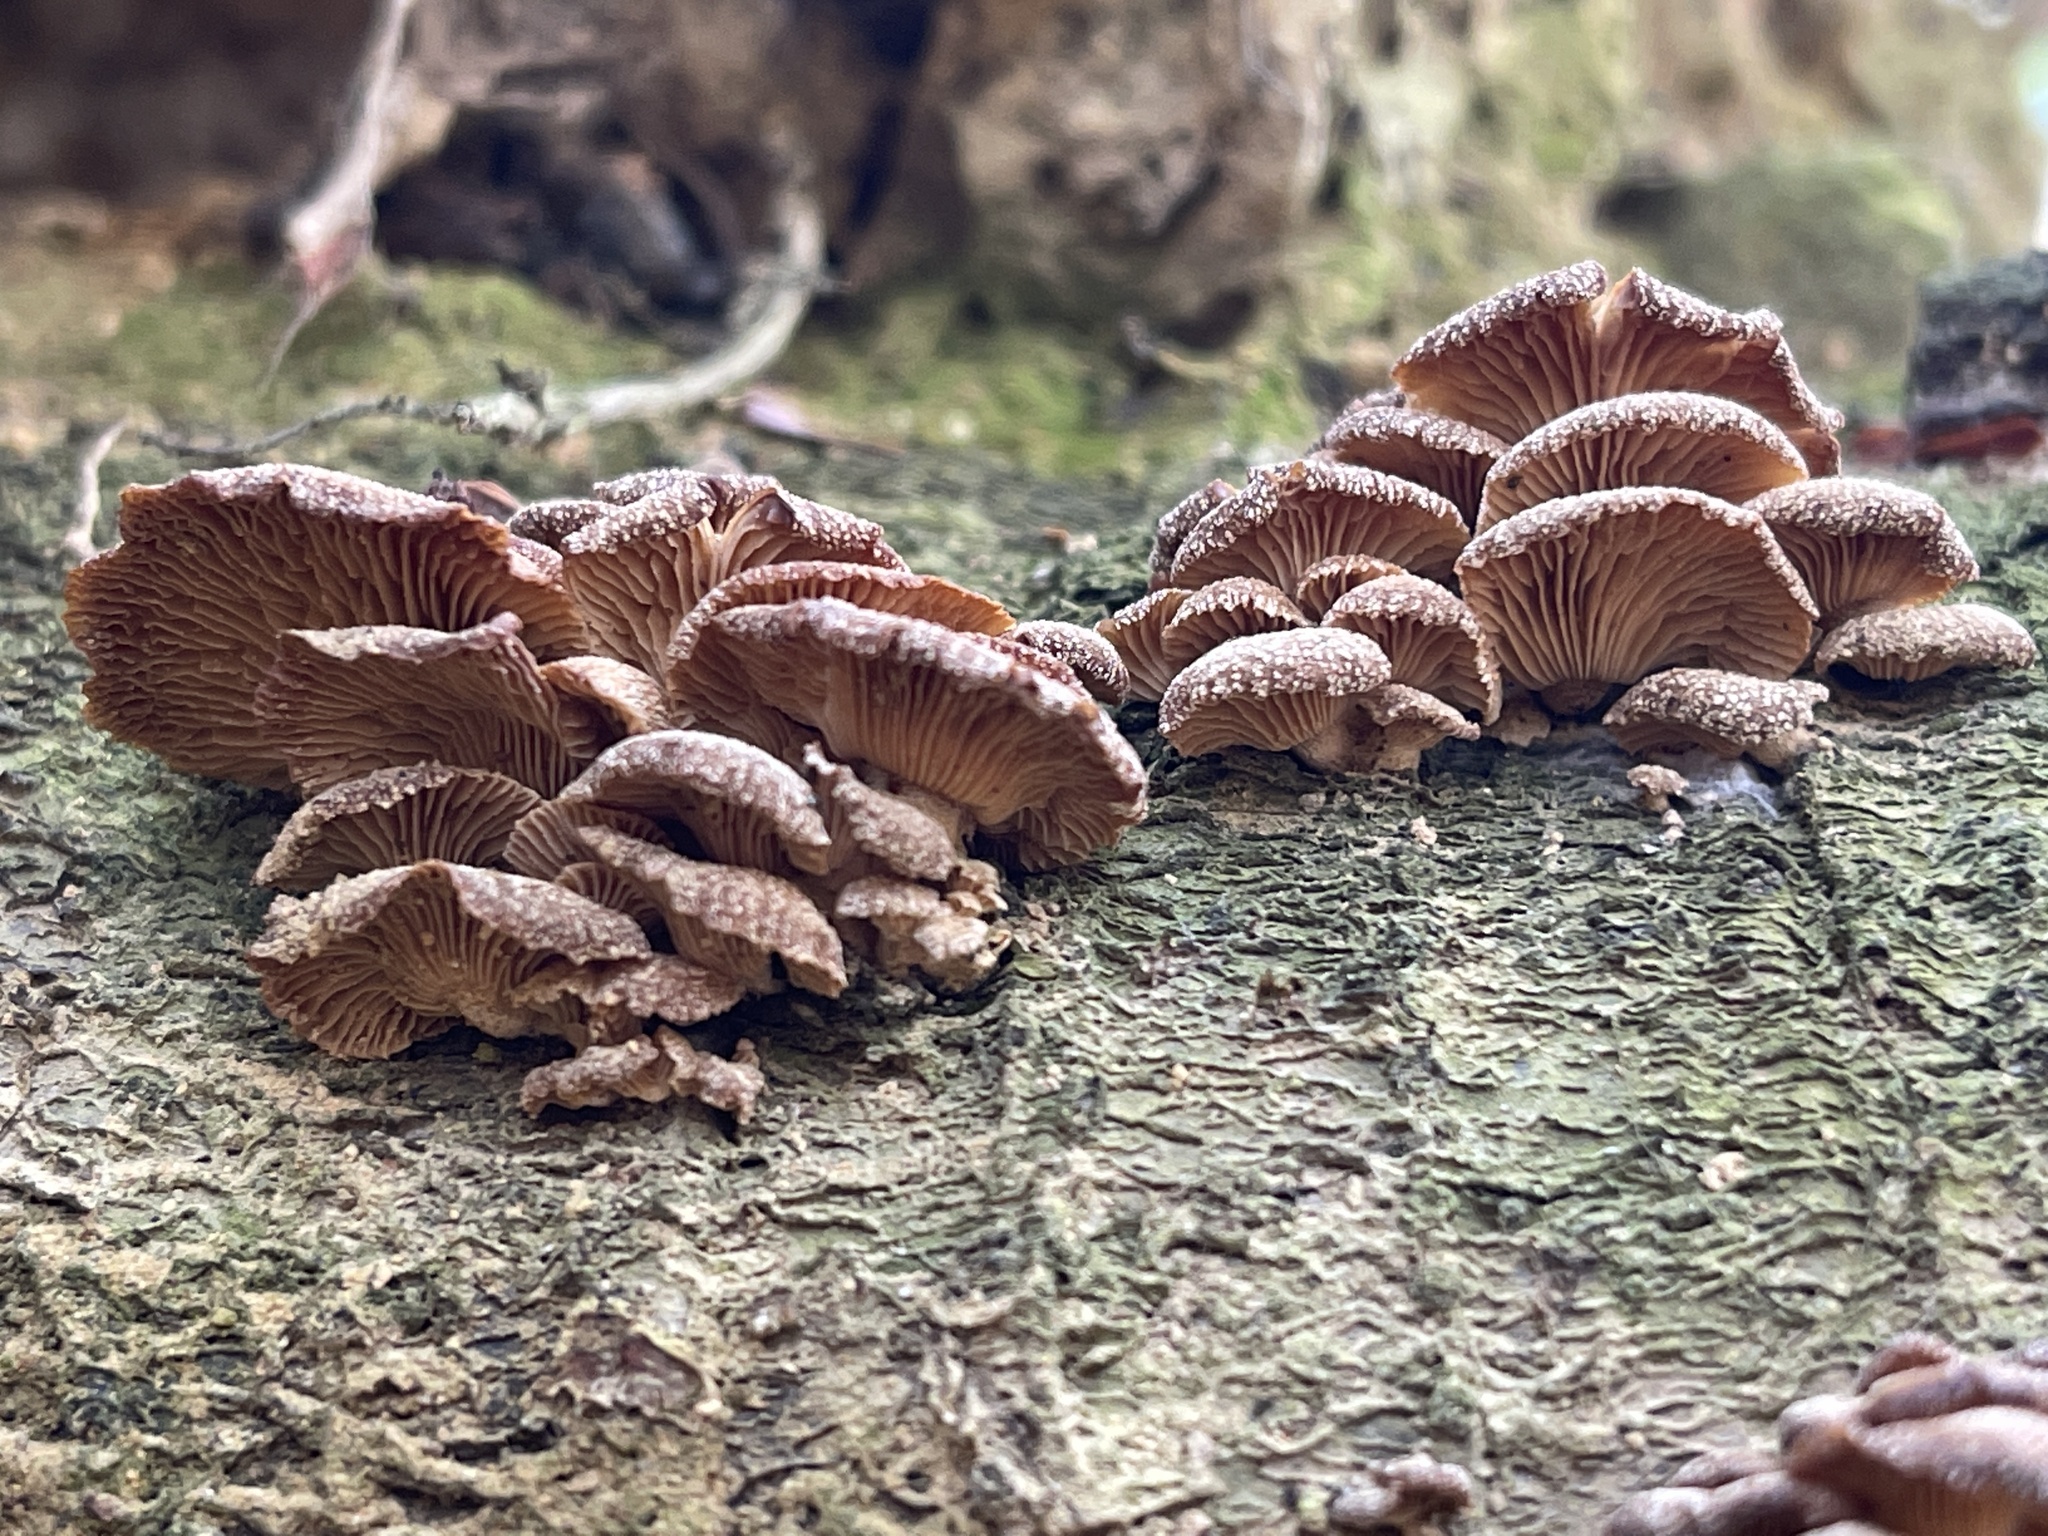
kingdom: Fungi
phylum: Basidiomycota
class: Agaricomycetes
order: Agaricales
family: Mycenaceae
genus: Panellus
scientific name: Panellus stipticus
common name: Bitter oysterling
